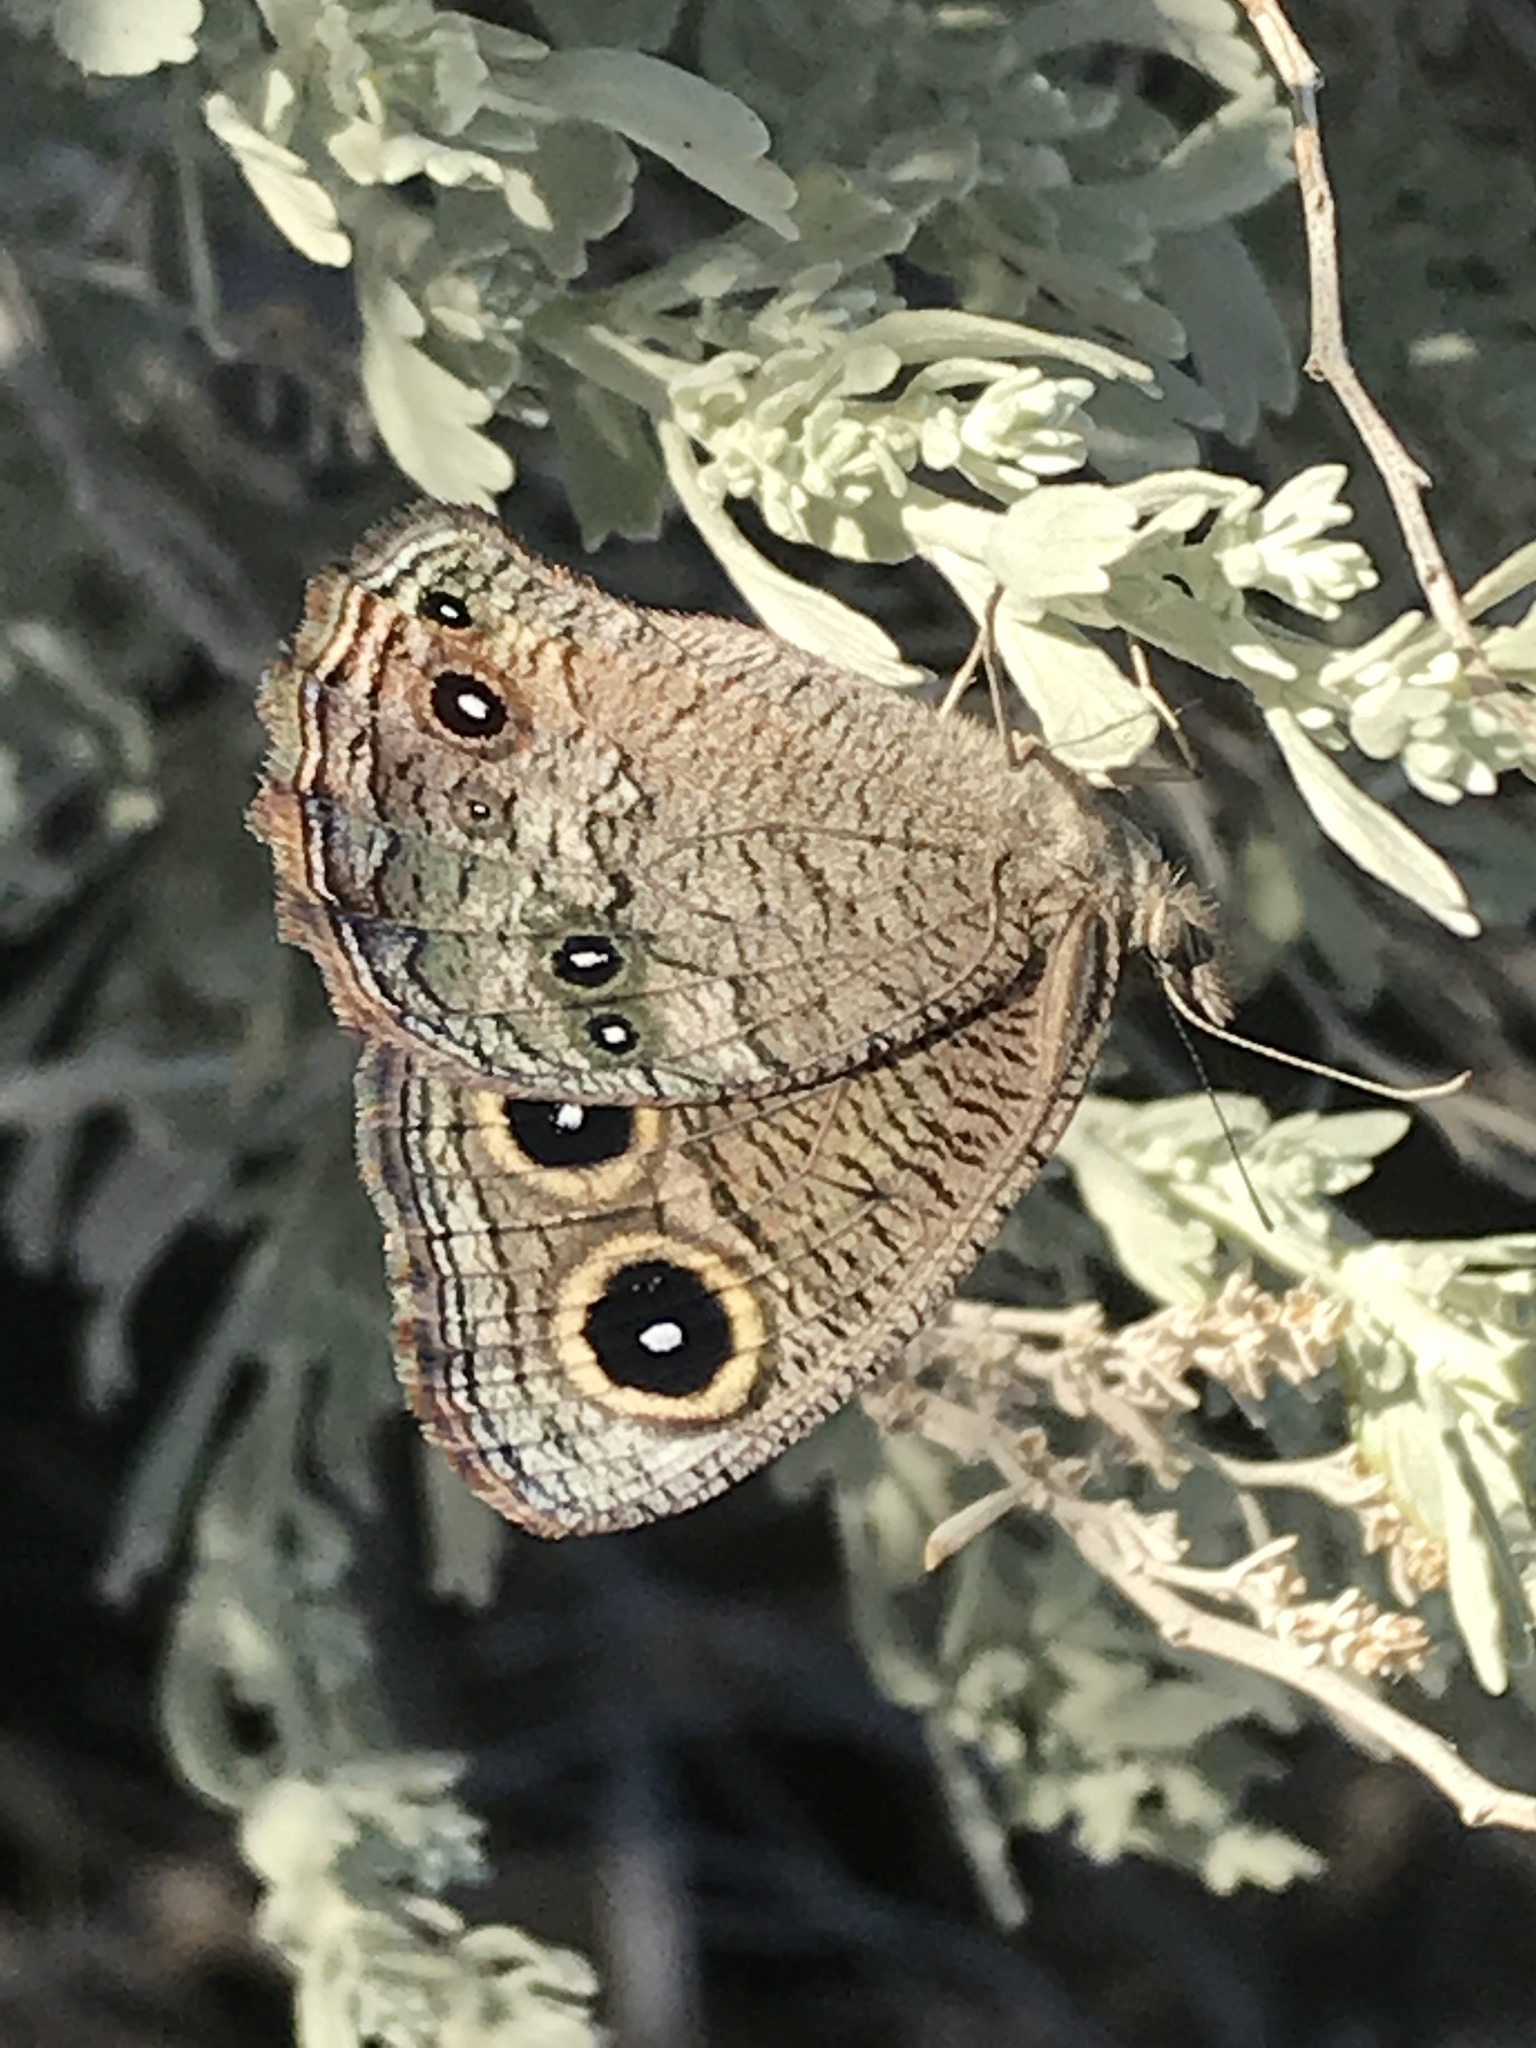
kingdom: Animalia
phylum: Arthropoda
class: Insecta
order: Lepidoptera
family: Nymphalidae
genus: Cercyonis
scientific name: Cercyonis sthenele
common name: Great basin wood-nymph
